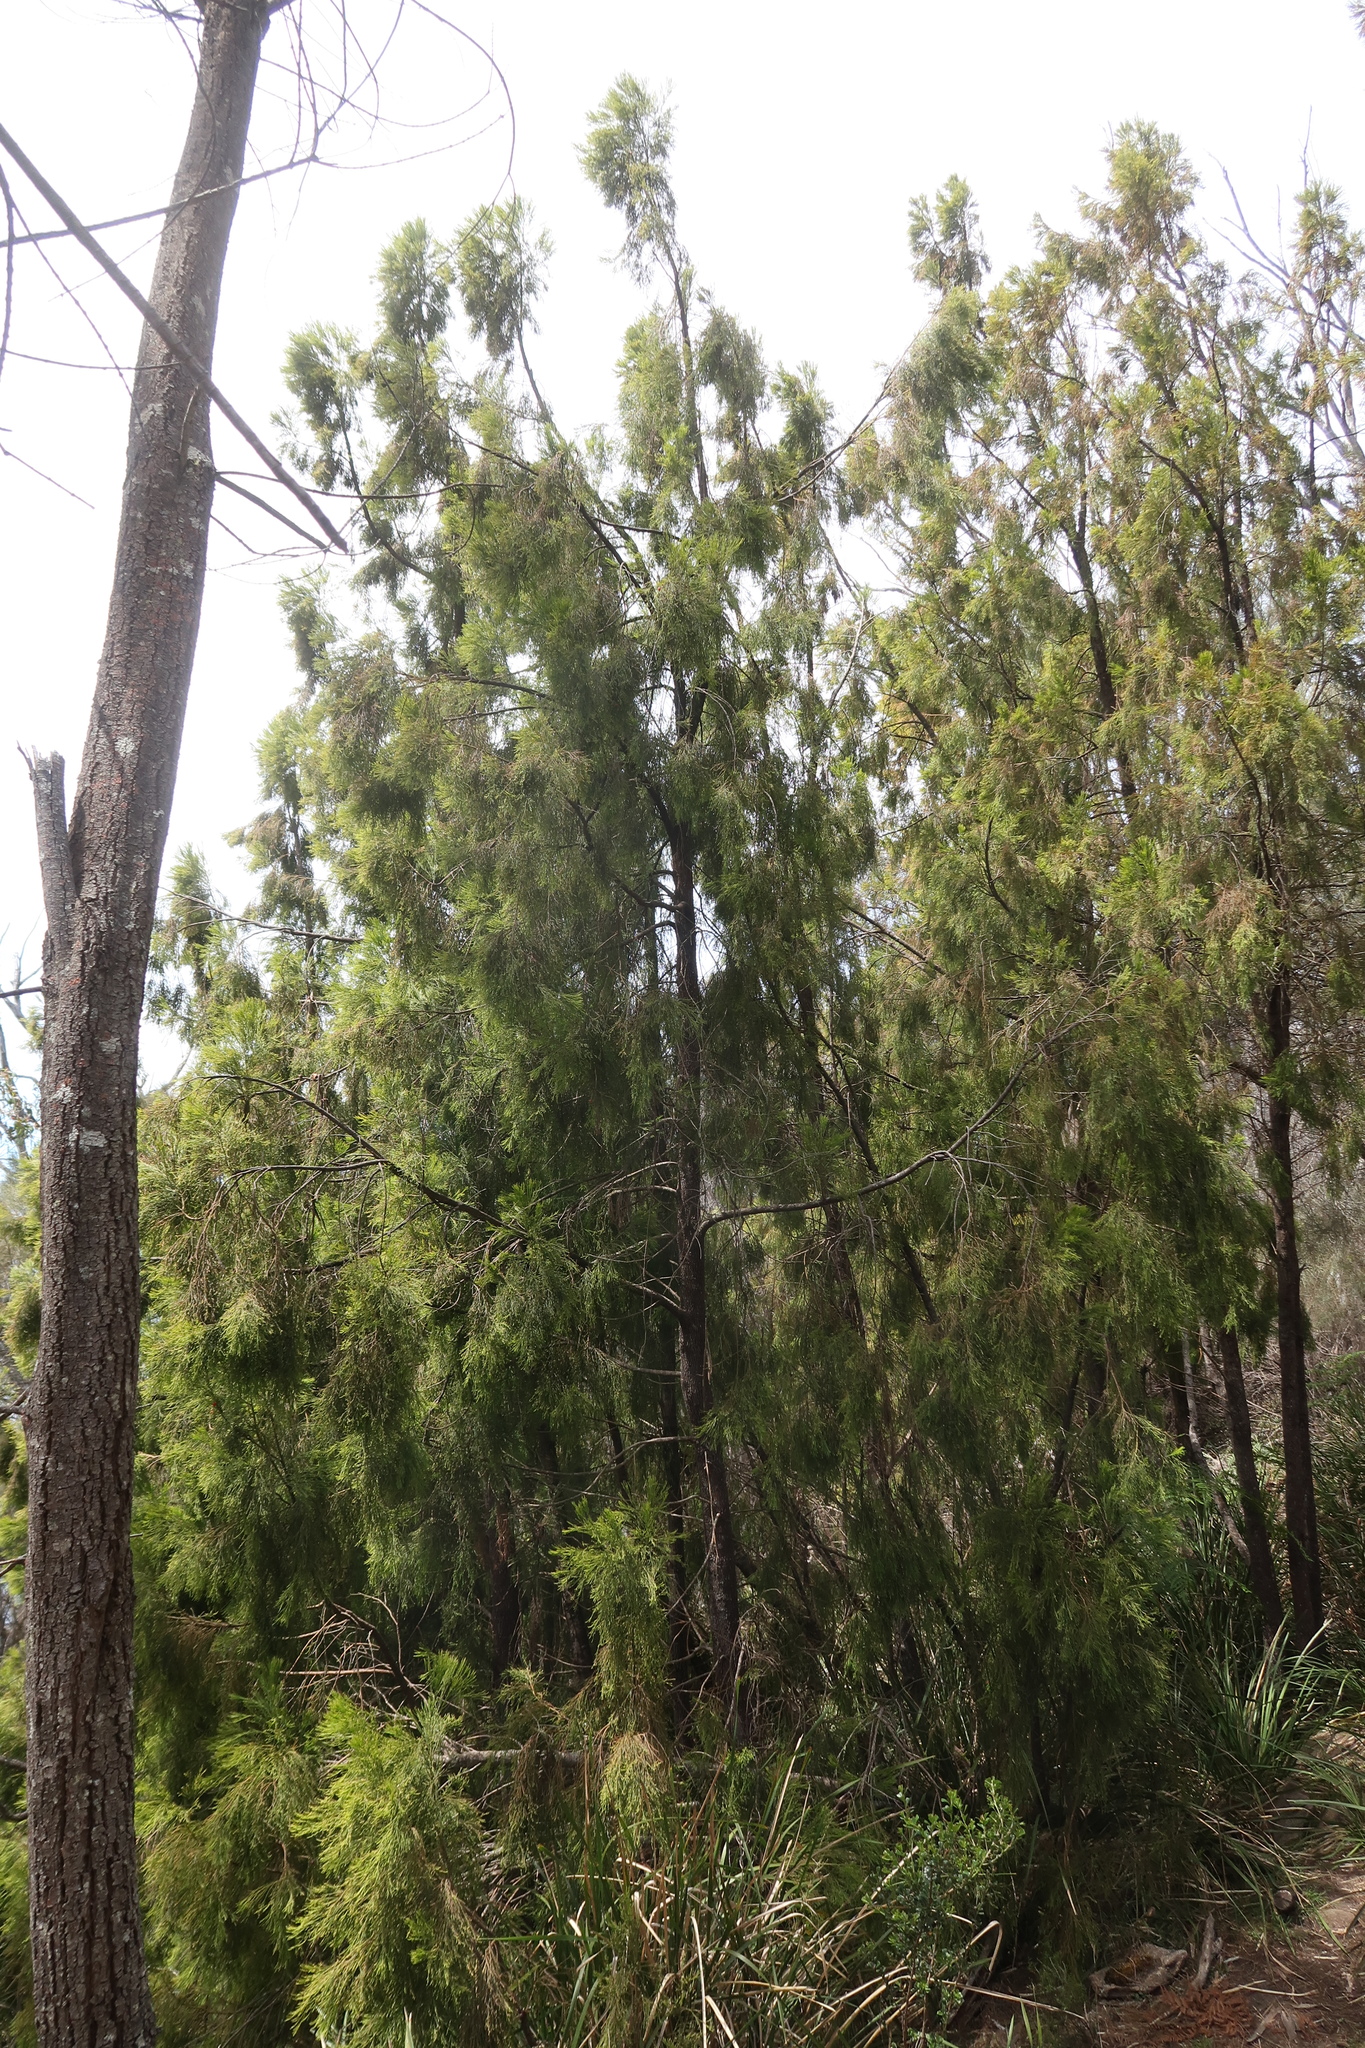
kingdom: Plantae
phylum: Tracheophyta
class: Magnoliopsida
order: Santalales
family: Santalaceae
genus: Exocarpos
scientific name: Exocarpos cupressiformis
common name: Cherry ballart
